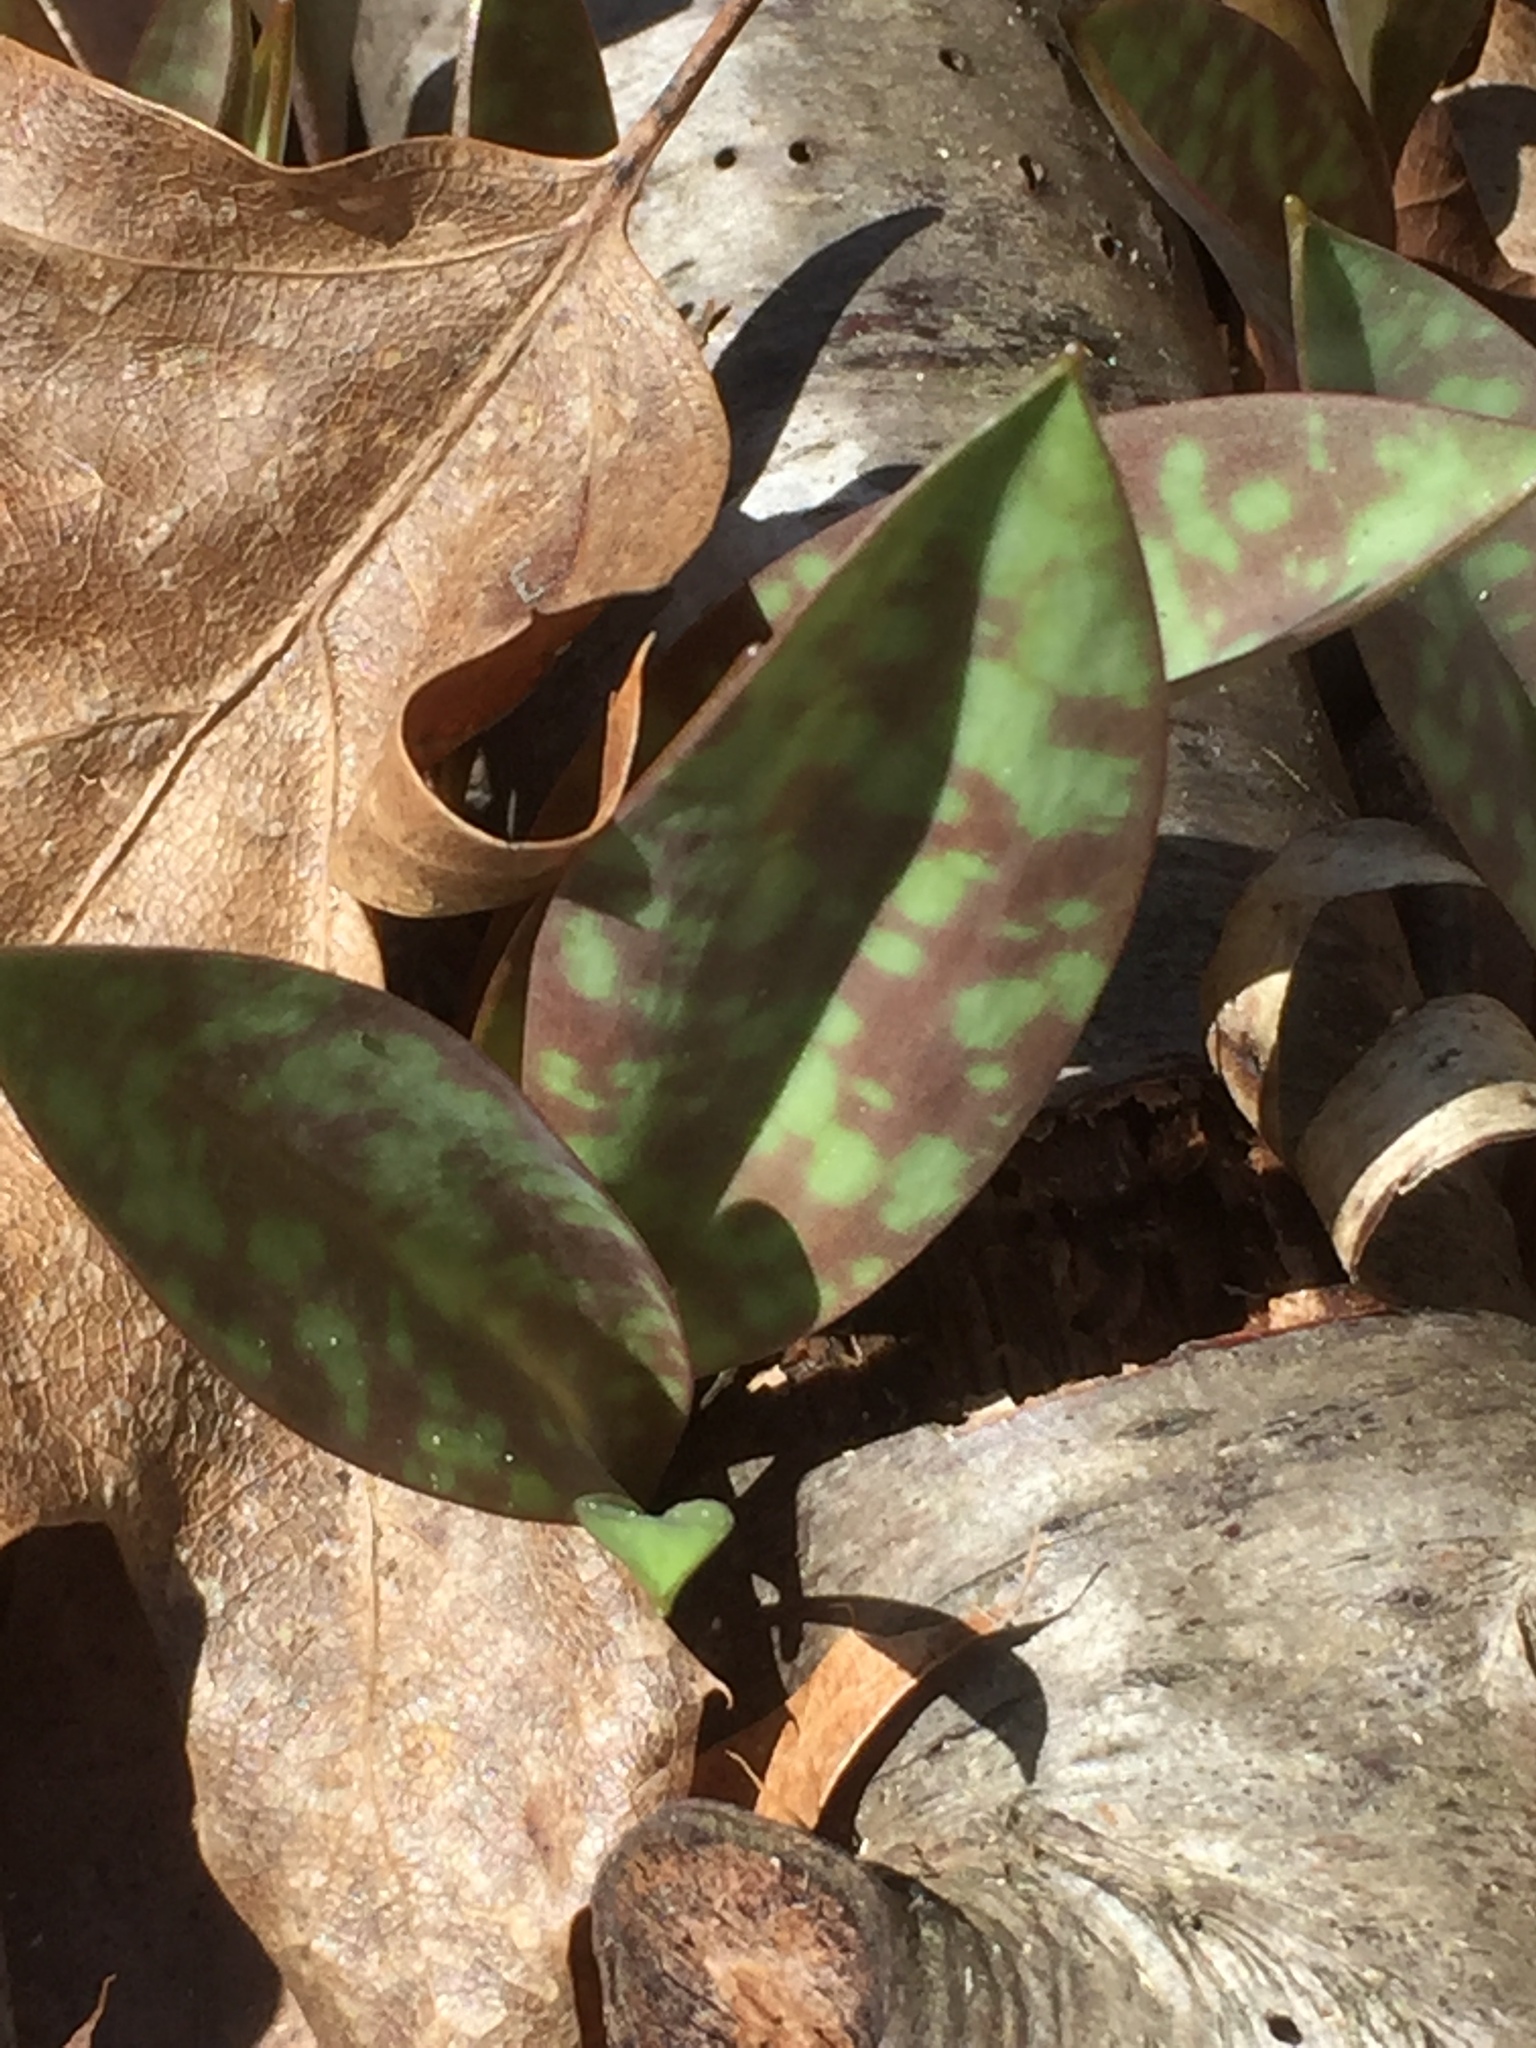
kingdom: Plantae
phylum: Tracheophyta
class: Liliopsida
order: Liliales
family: Liliaceae
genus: Erythronium
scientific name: Erythronium americanum
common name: Yellow adder's-tongue
